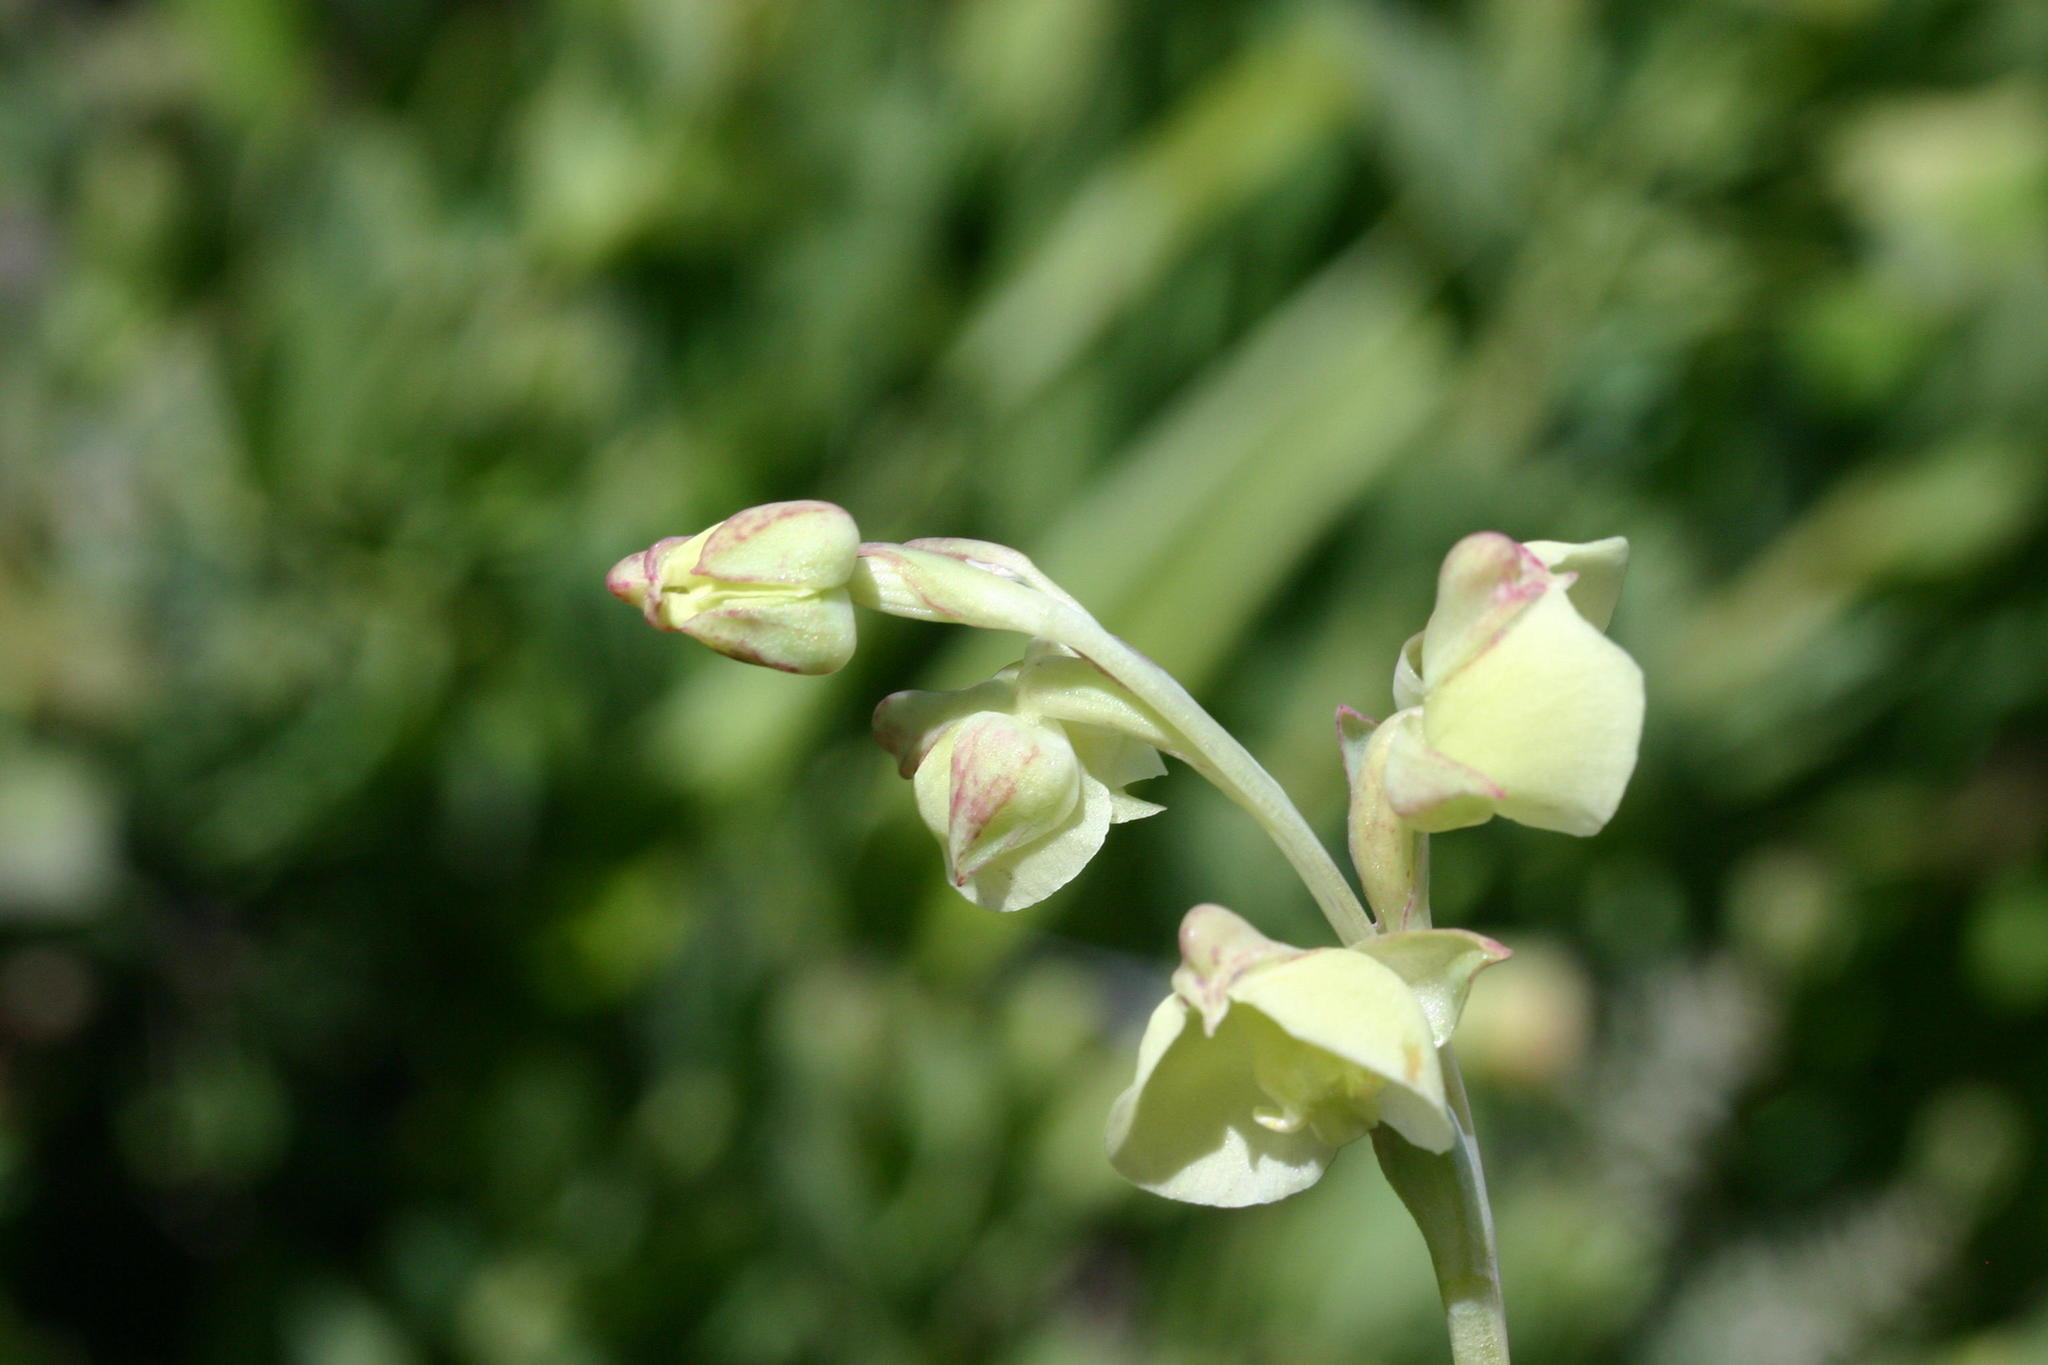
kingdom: Plantae
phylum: Tracheophyta
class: Liliopsida
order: Asparagales
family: Orchidaceae
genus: Pterygodium
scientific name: Pterygodium catholicum
